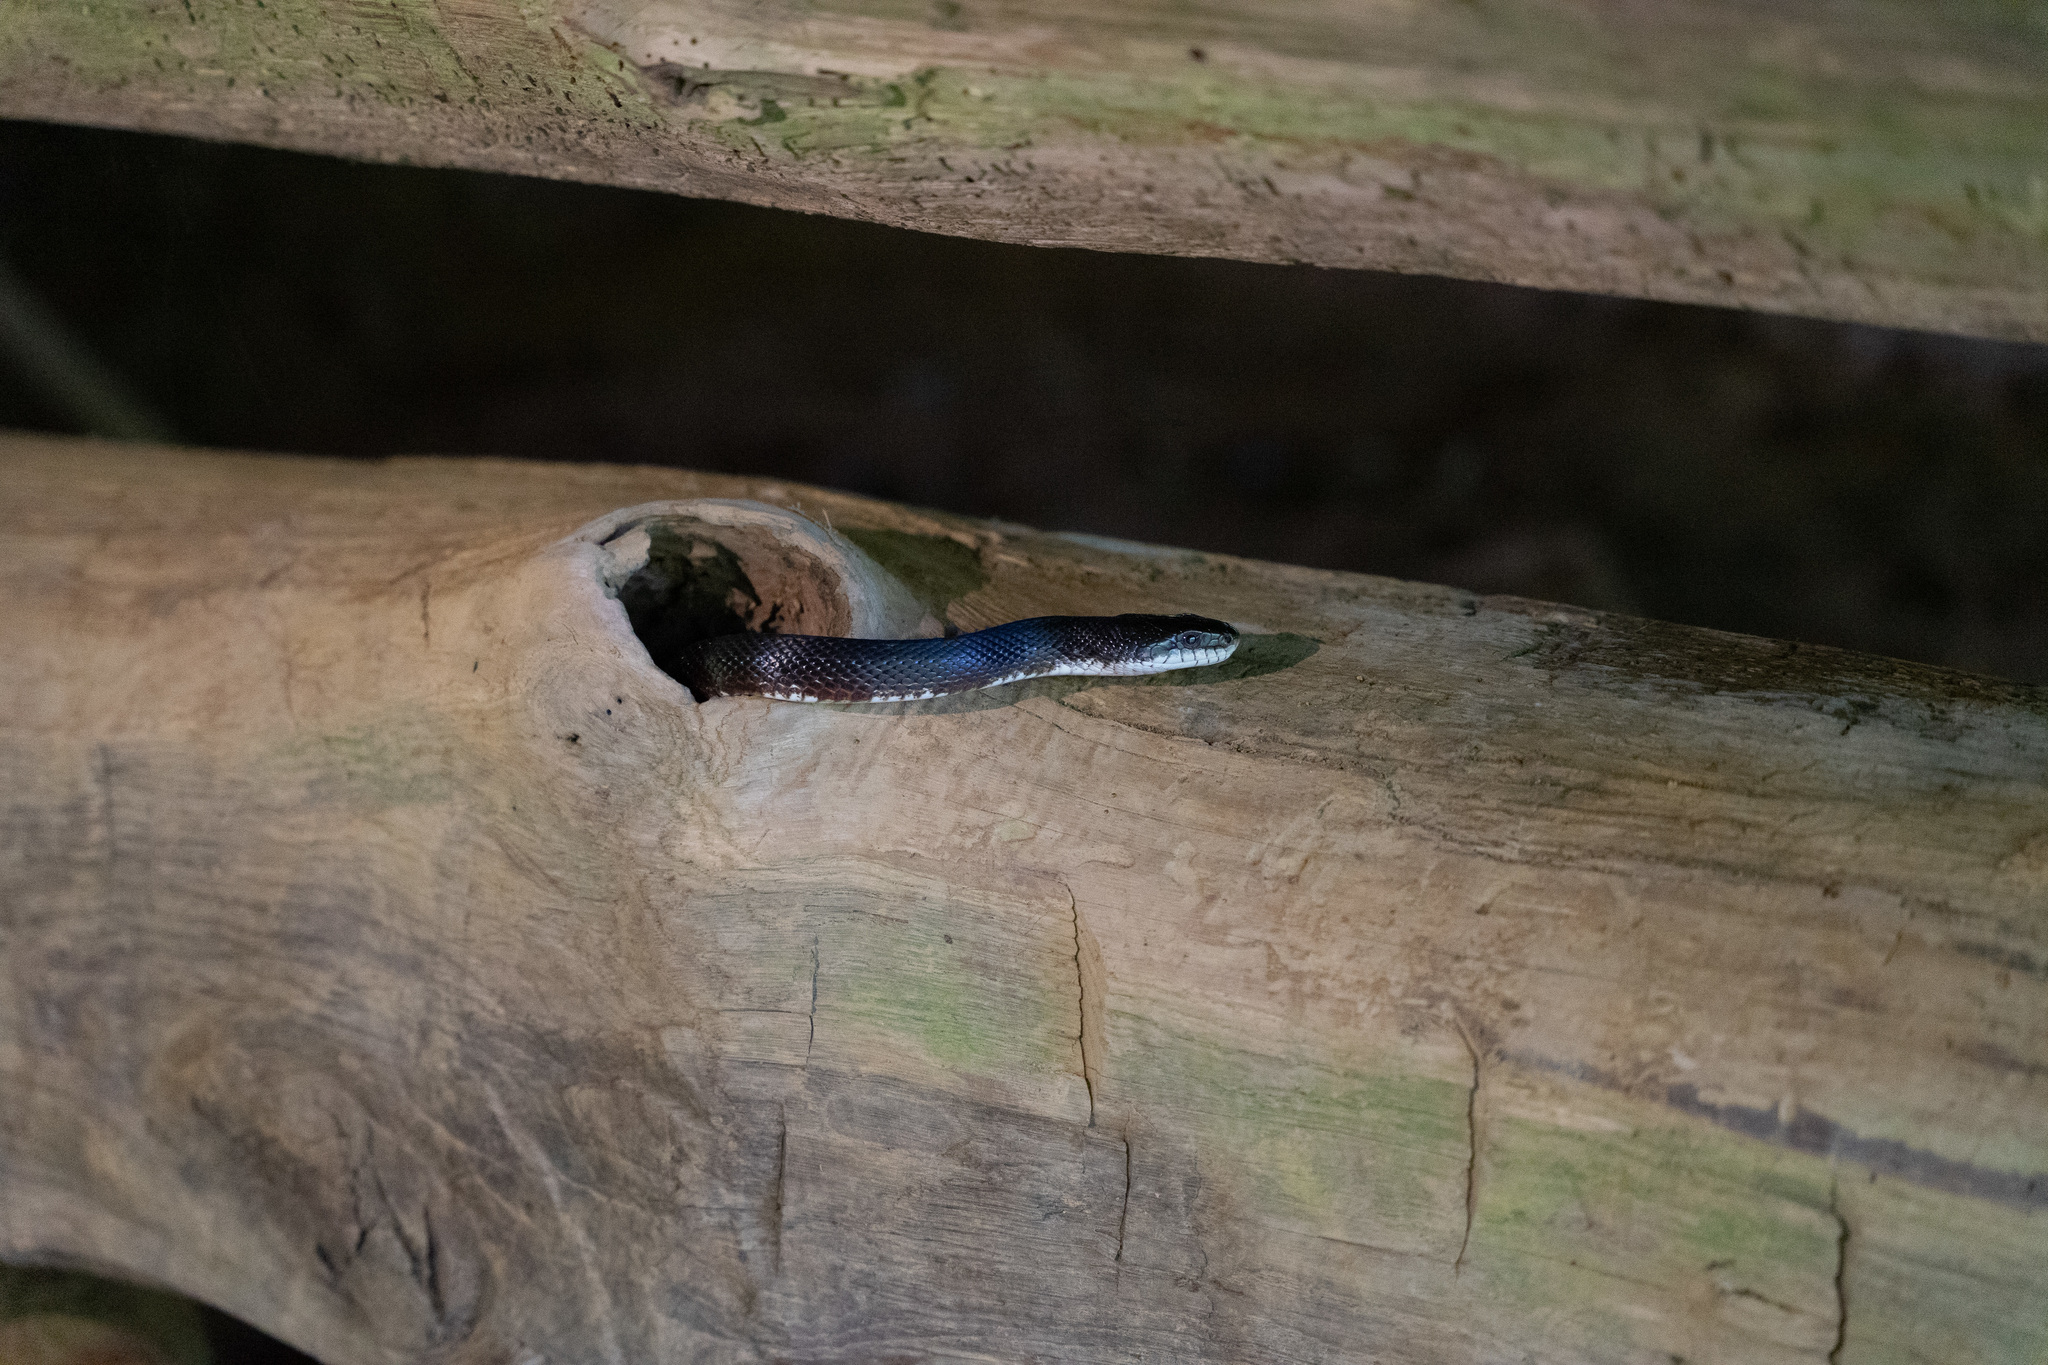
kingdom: Animalia
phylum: Chordata
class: Squamata
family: Colubridae
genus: Pantherophis
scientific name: Pantherophis spiloides
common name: Gray rat snake
